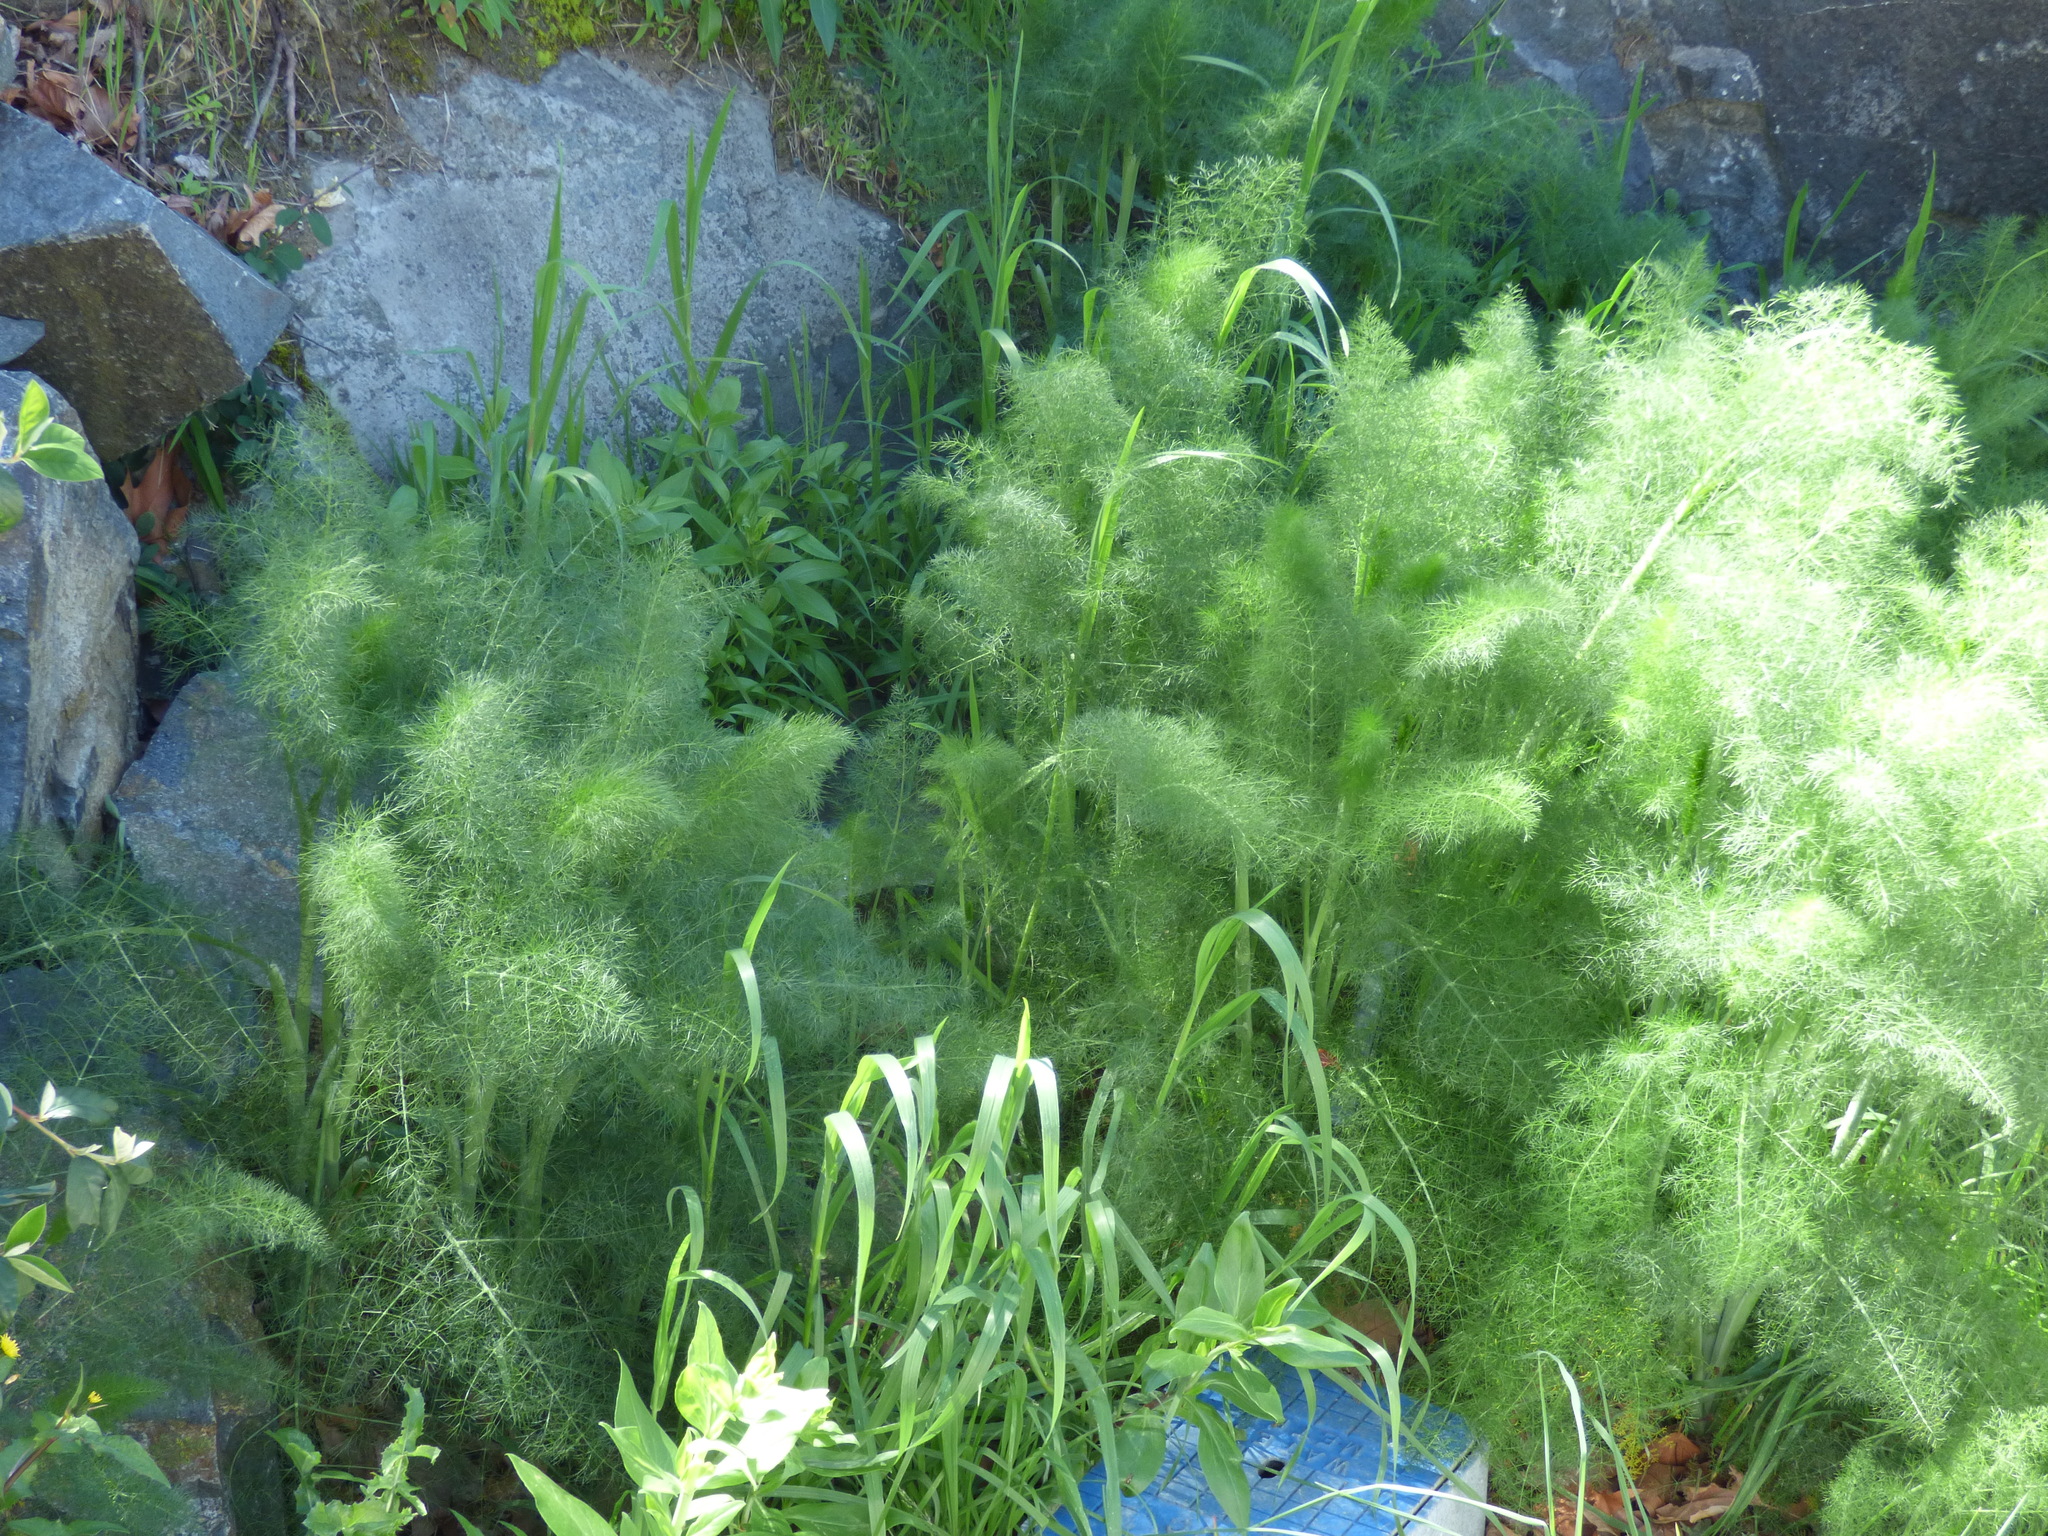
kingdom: Plantae
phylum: Tracheophyta
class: Magnoliopsida
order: Apiales
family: Apiaceae
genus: Foeniculum
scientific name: Foeniculum vulgare
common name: Fennel
